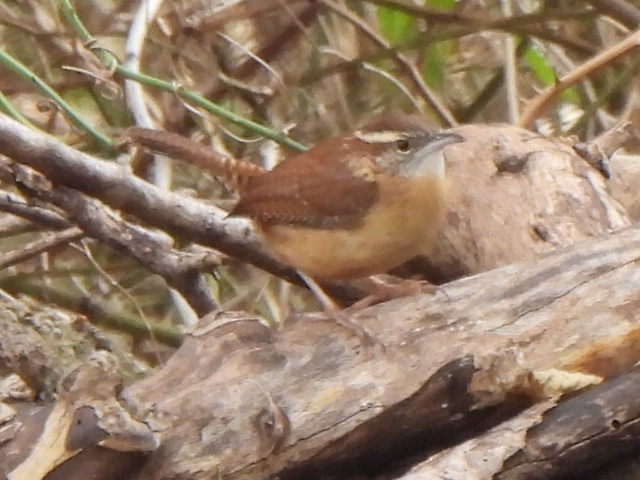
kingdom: Animalia
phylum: Chordata
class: Aves
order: Passeriformes
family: Troglodytidae
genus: Thryothorus
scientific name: Thryothorus ludovicianus
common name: Carolina wren
